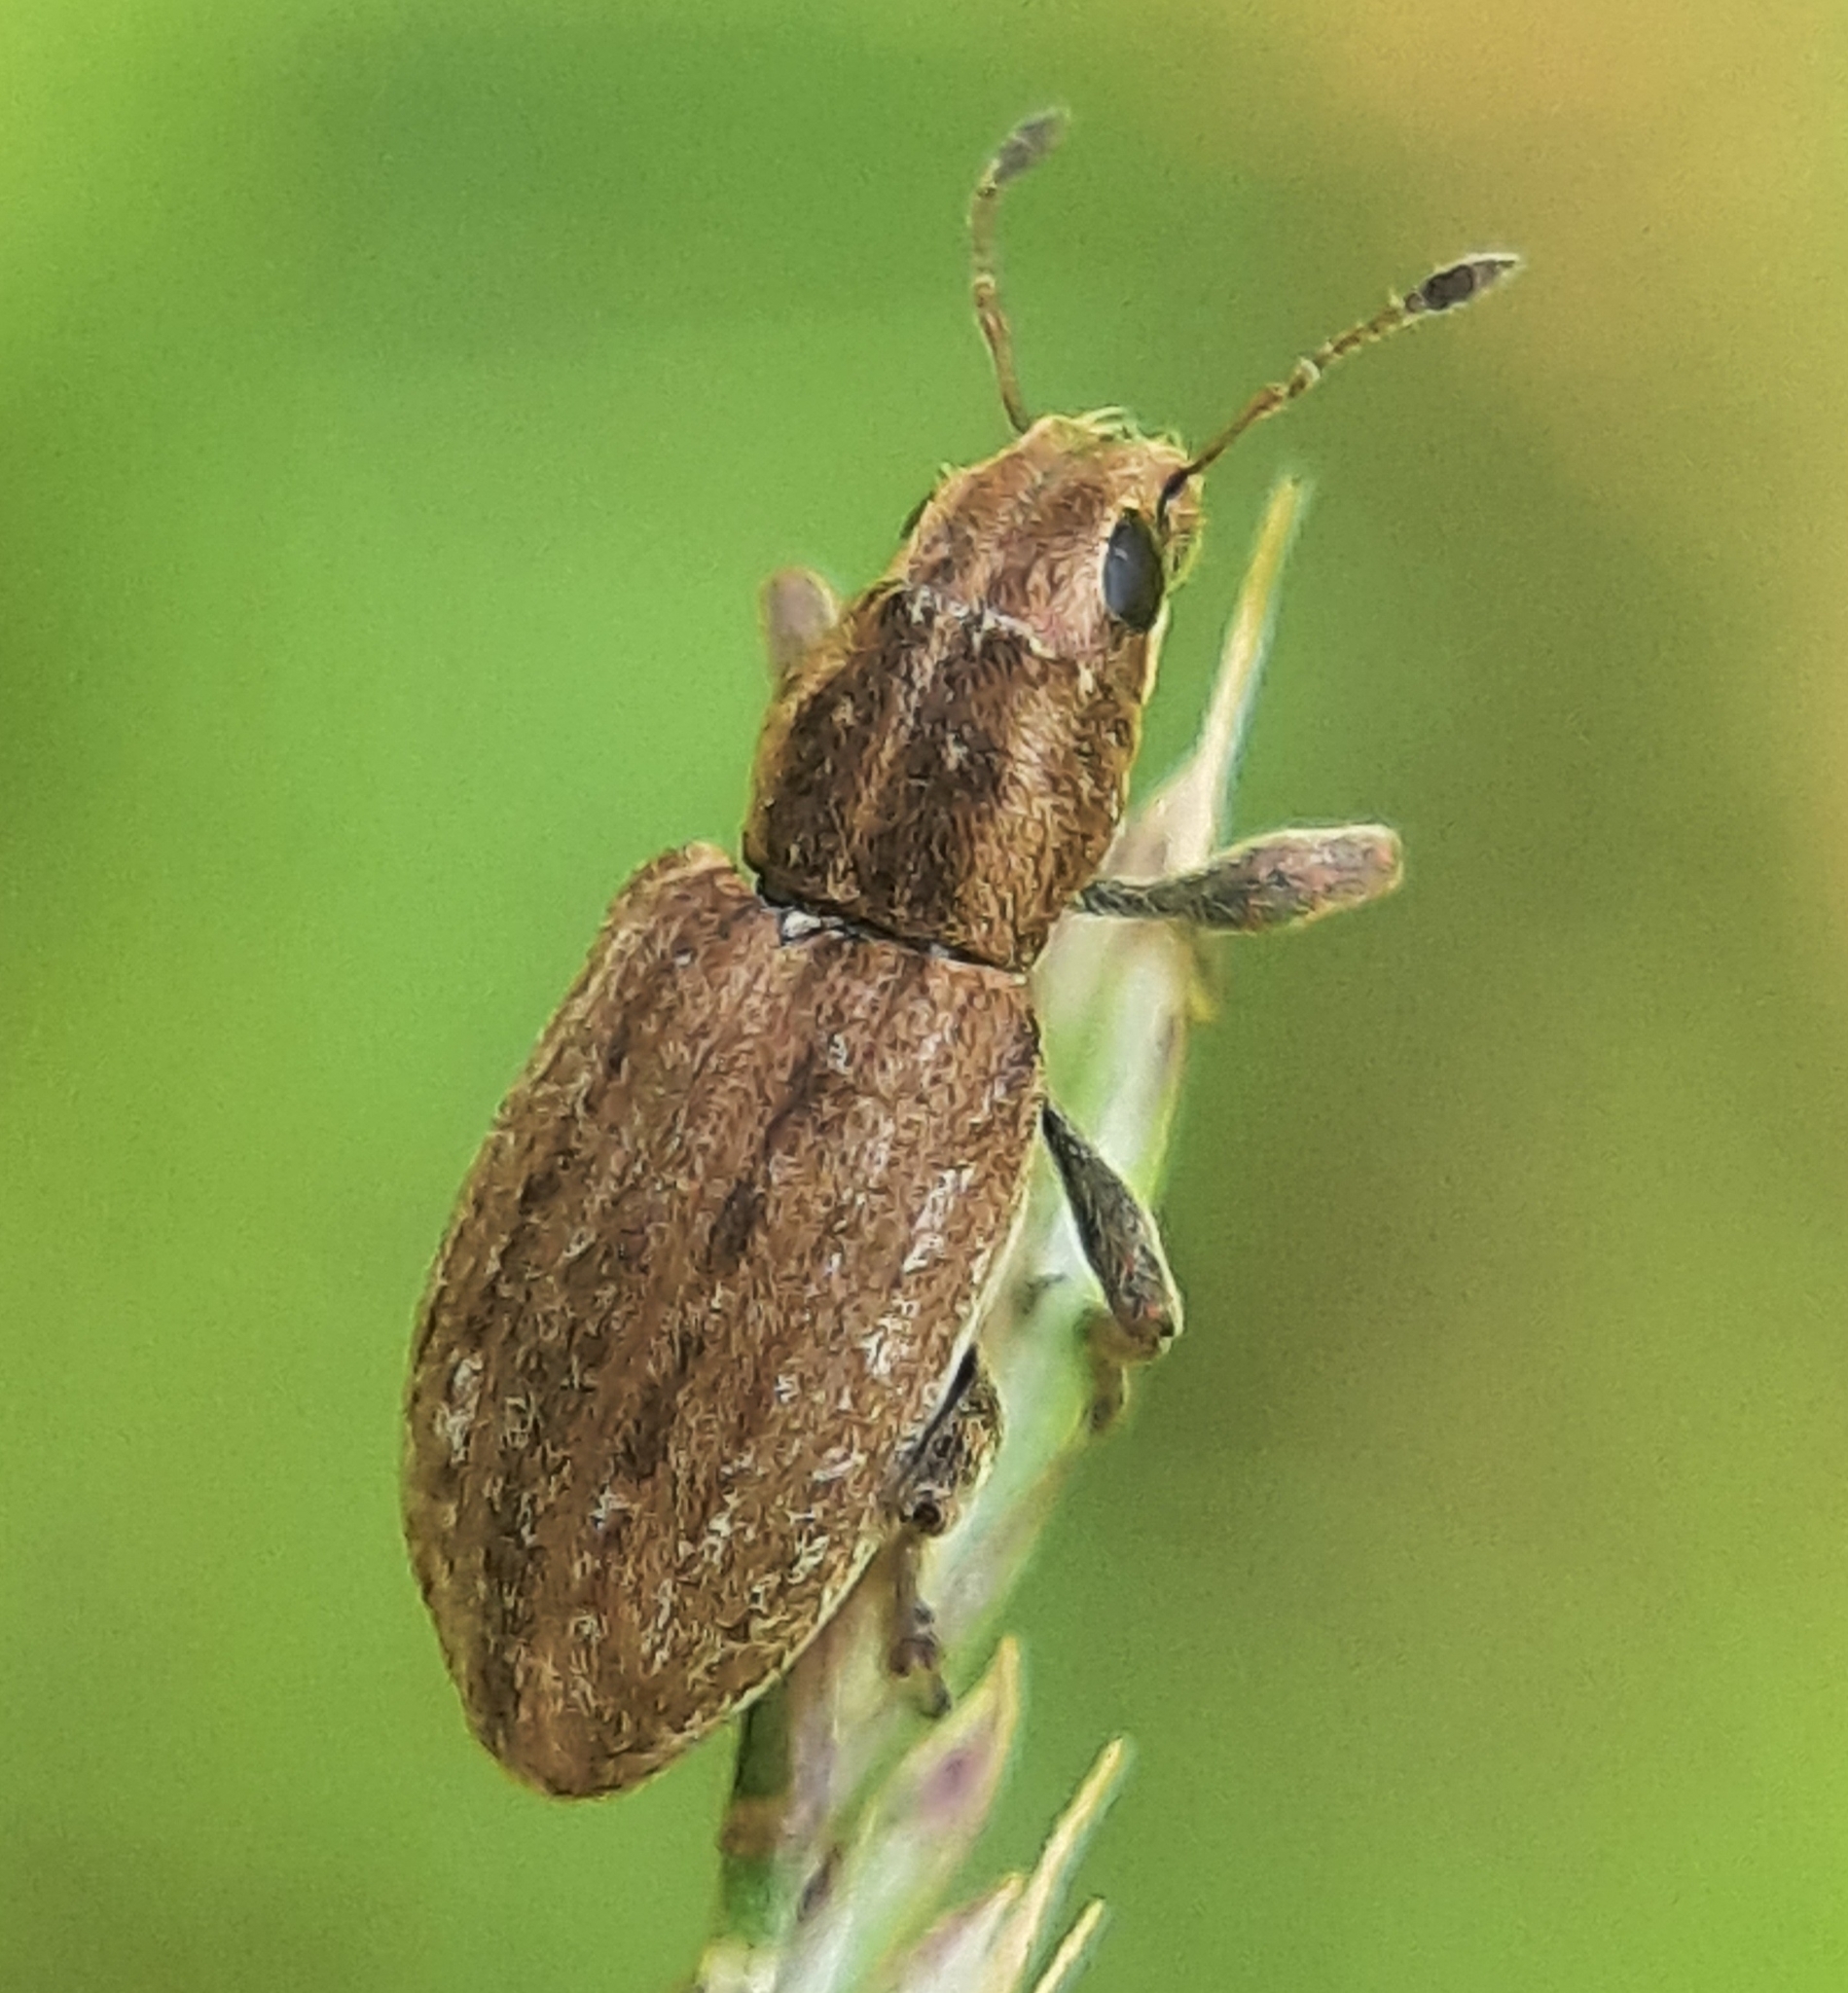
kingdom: Animalia
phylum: Arthropoda
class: Insecta
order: Coleoptera
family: Curculionidae
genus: Sitona
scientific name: Sitona obsoletus
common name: Weevil
